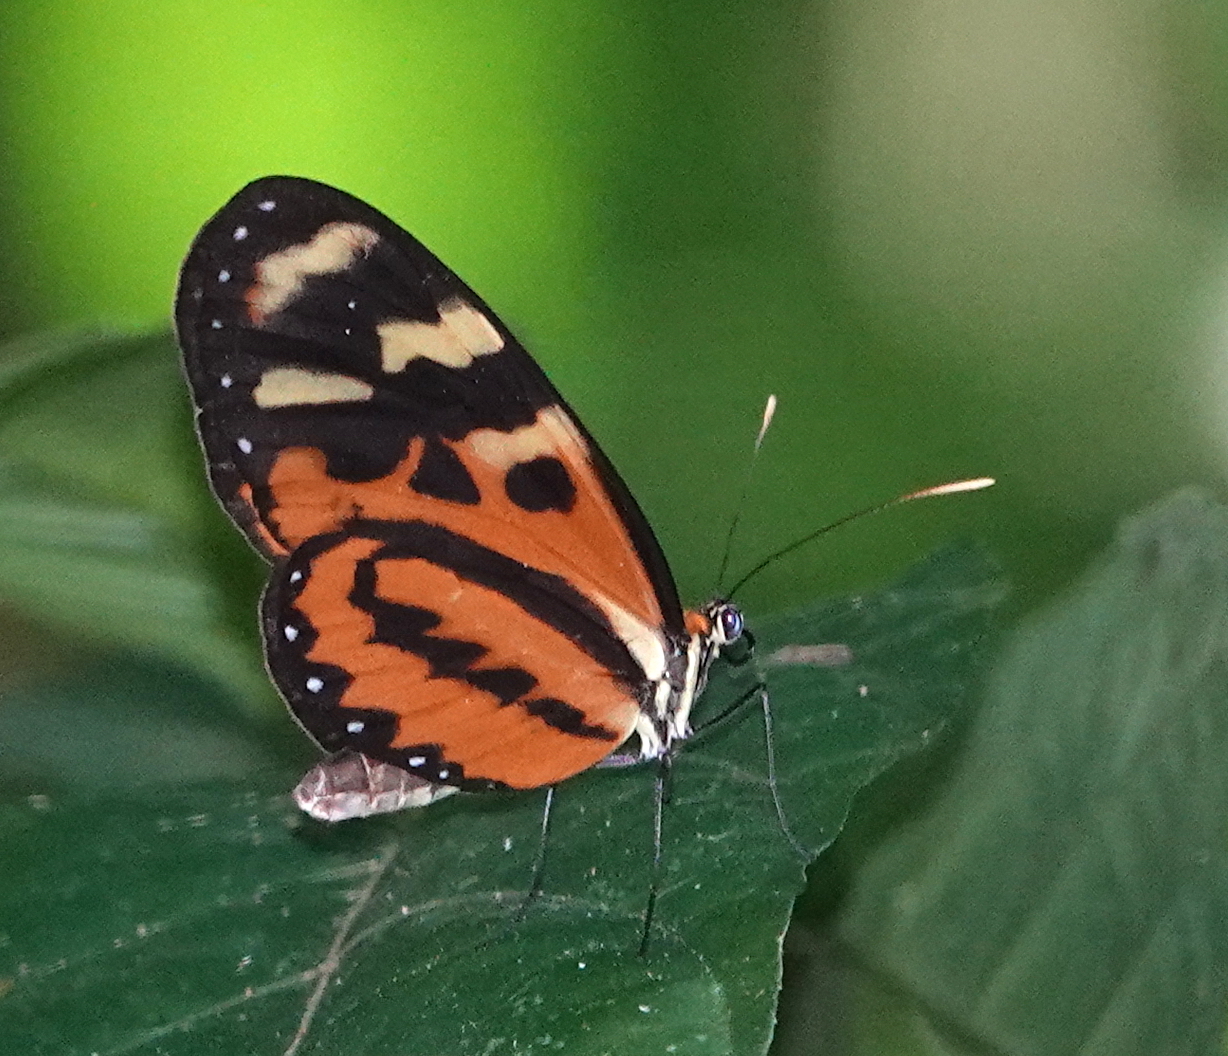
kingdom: Animalia
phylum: Arthropoda
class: Insecta
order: Lepidoptera
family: Nymphalidae
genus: Mechanitis
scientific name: Mechanitis polymnia
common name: Disturbed tigerwing
